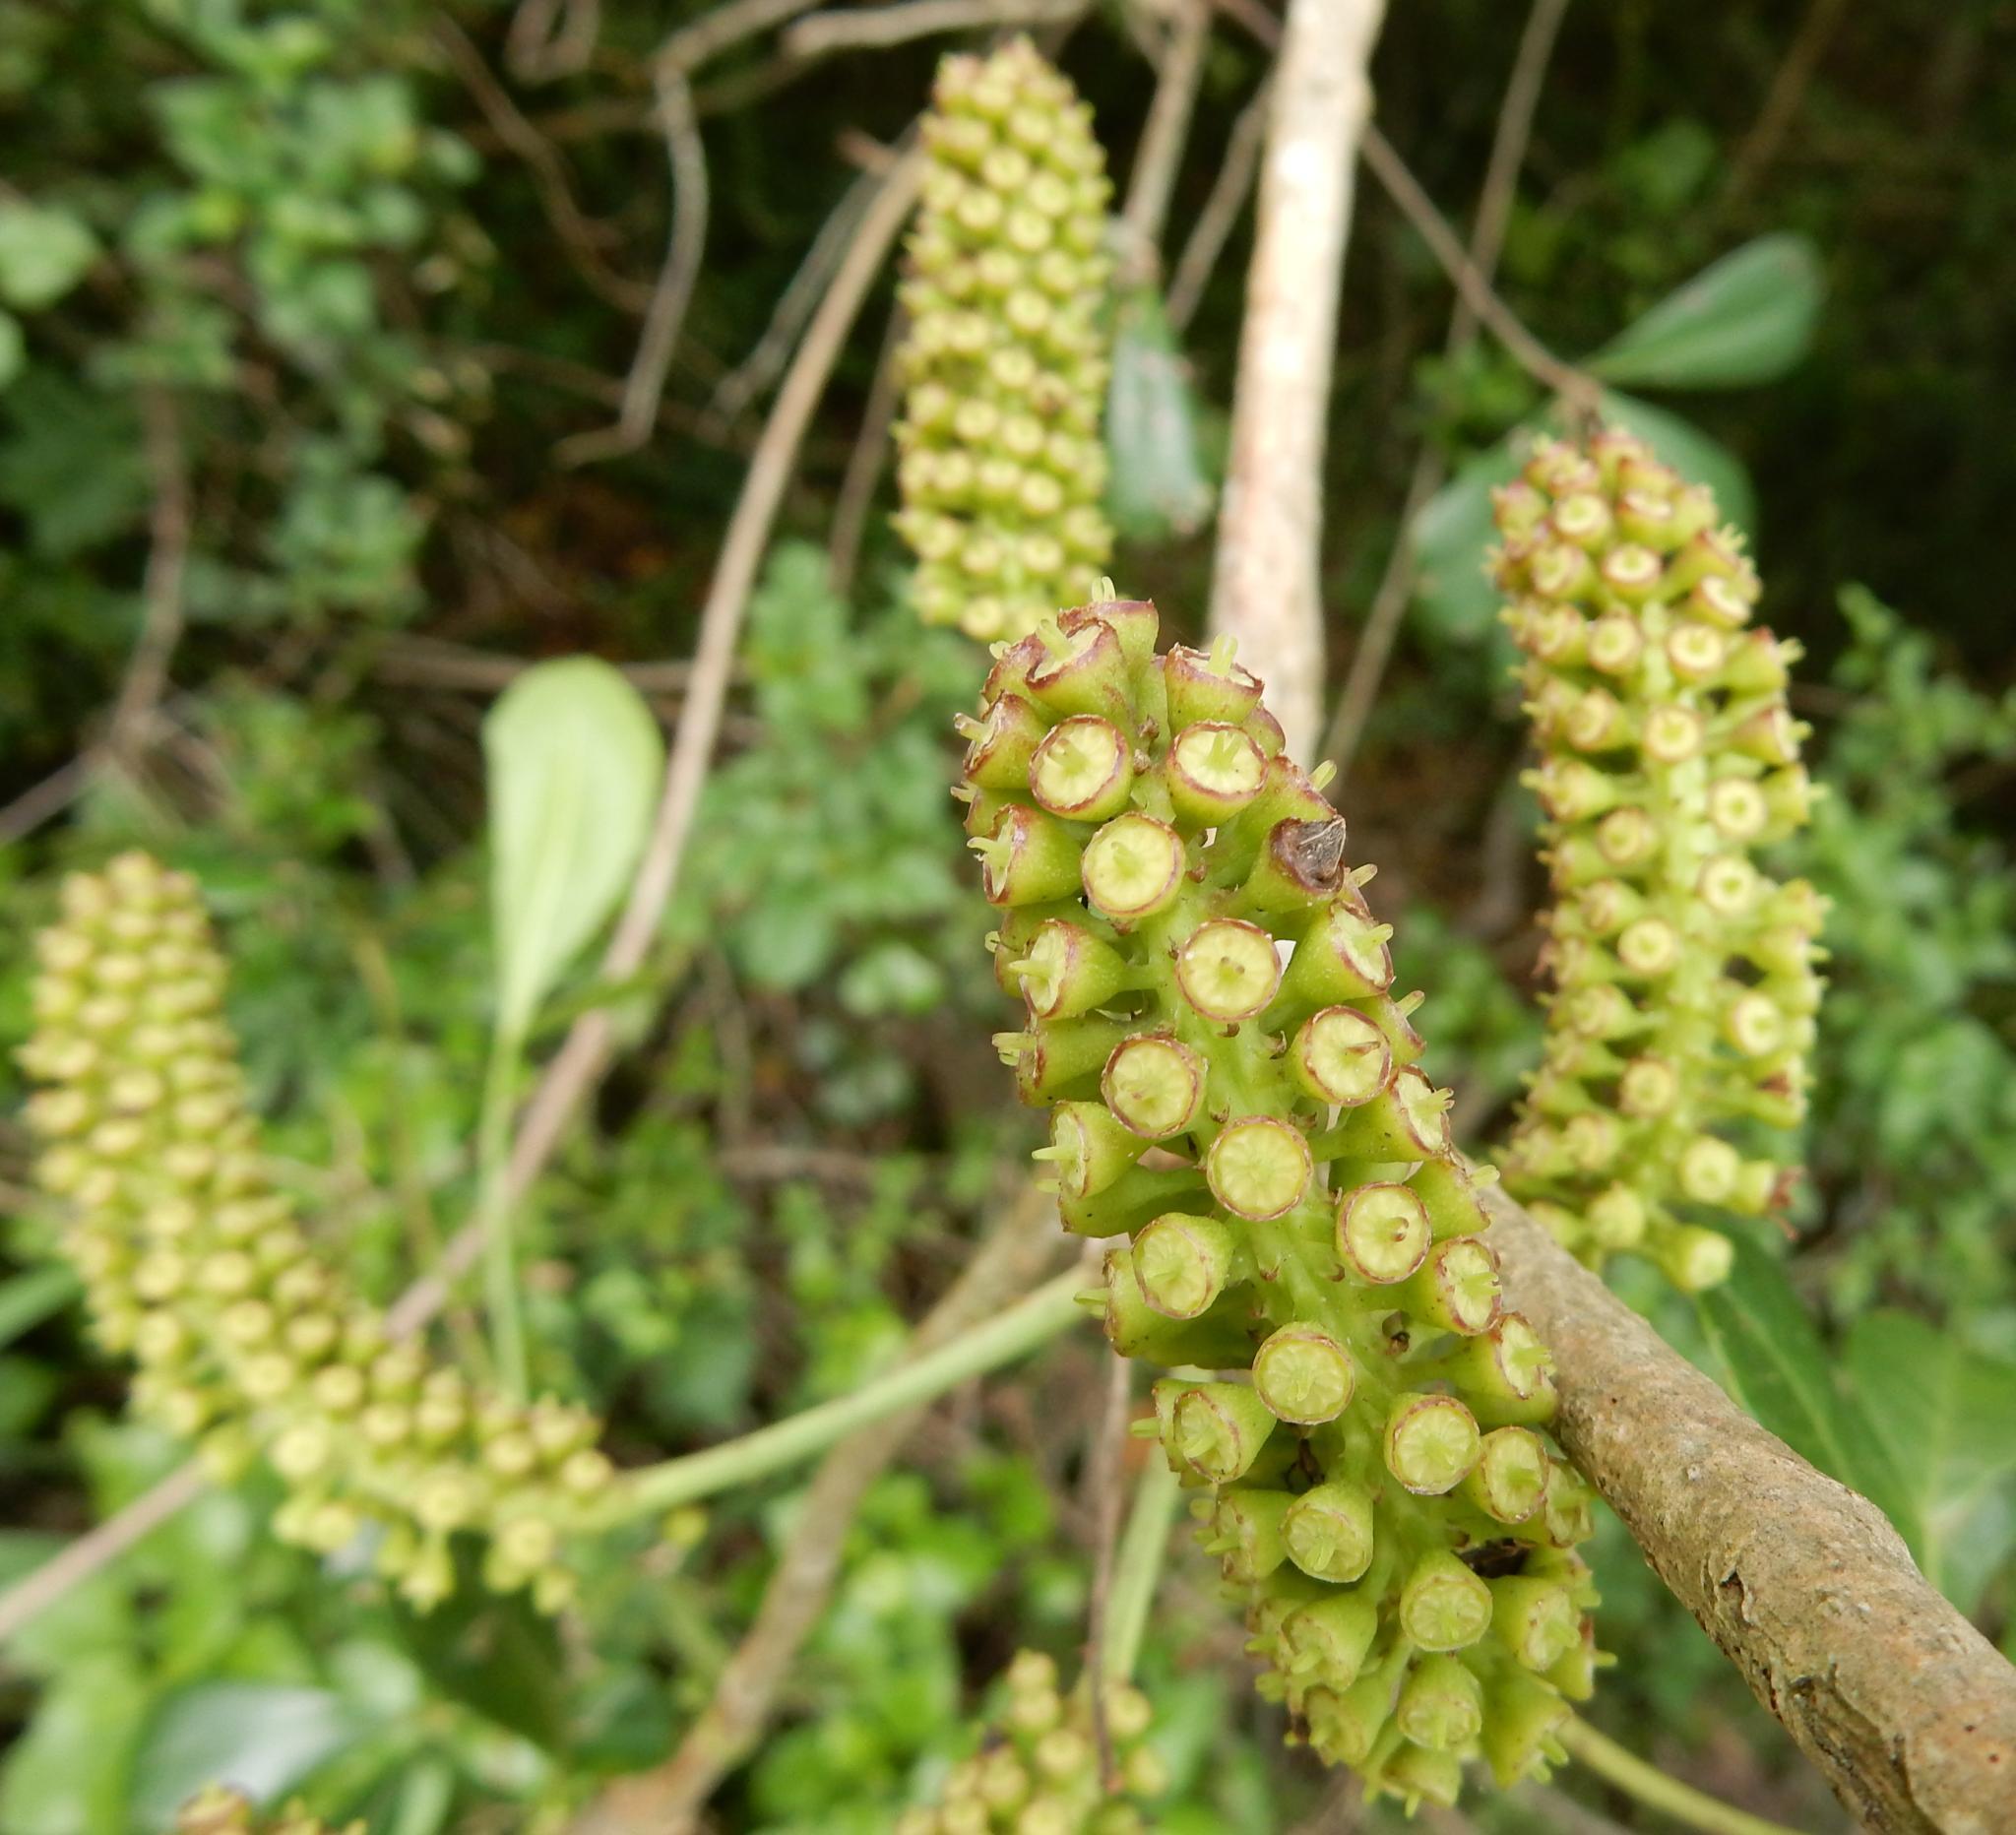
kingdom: Plantae
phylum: Tracheophyta
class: Magnoliopsida
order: Apiales
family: Araliaceae
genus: Cussonia
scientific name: Cussonia thyrsiflora
